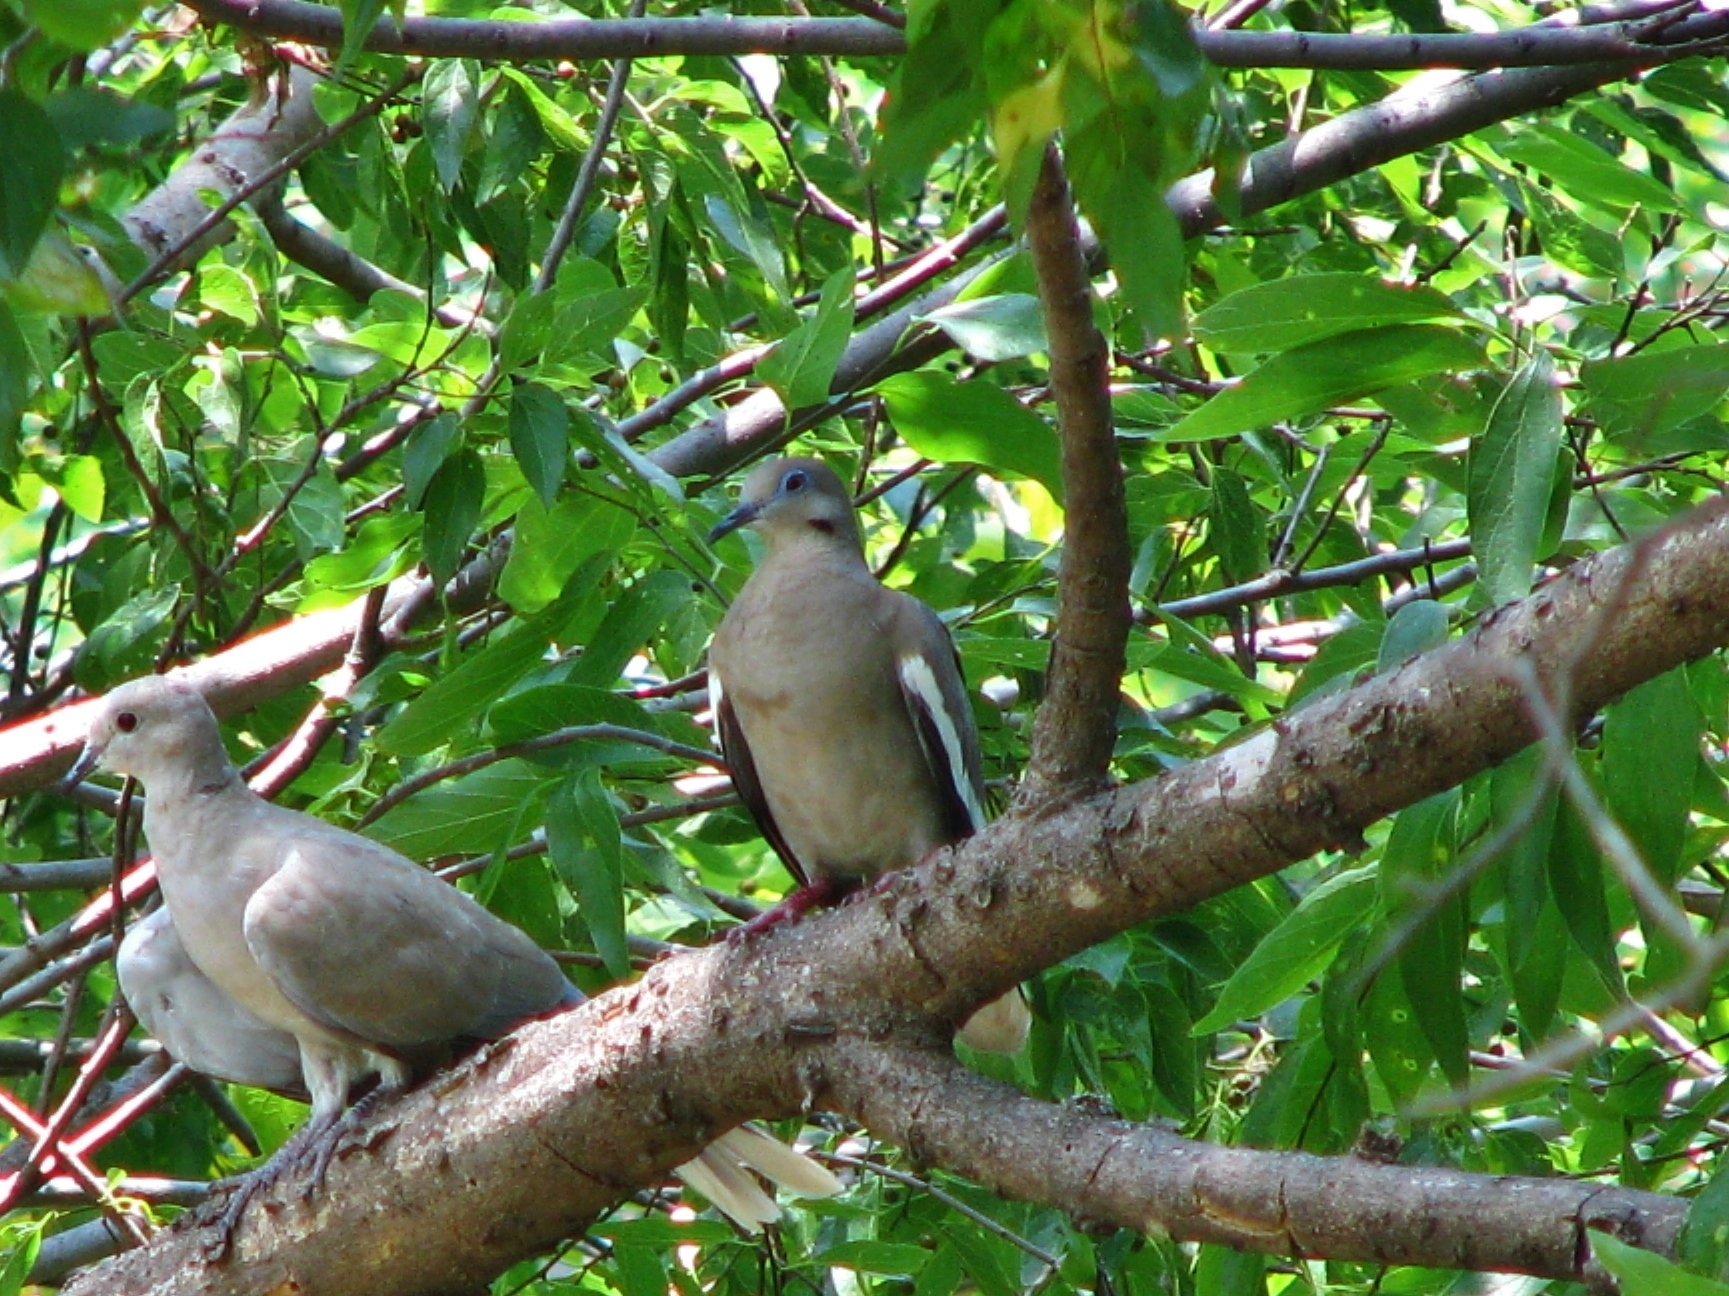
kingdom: Animalia
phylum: Chordata
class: Aves
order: Columbiformes
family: Columbidae
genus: Zenaida
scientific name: Zenaida asiatica
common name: White-winged dove
